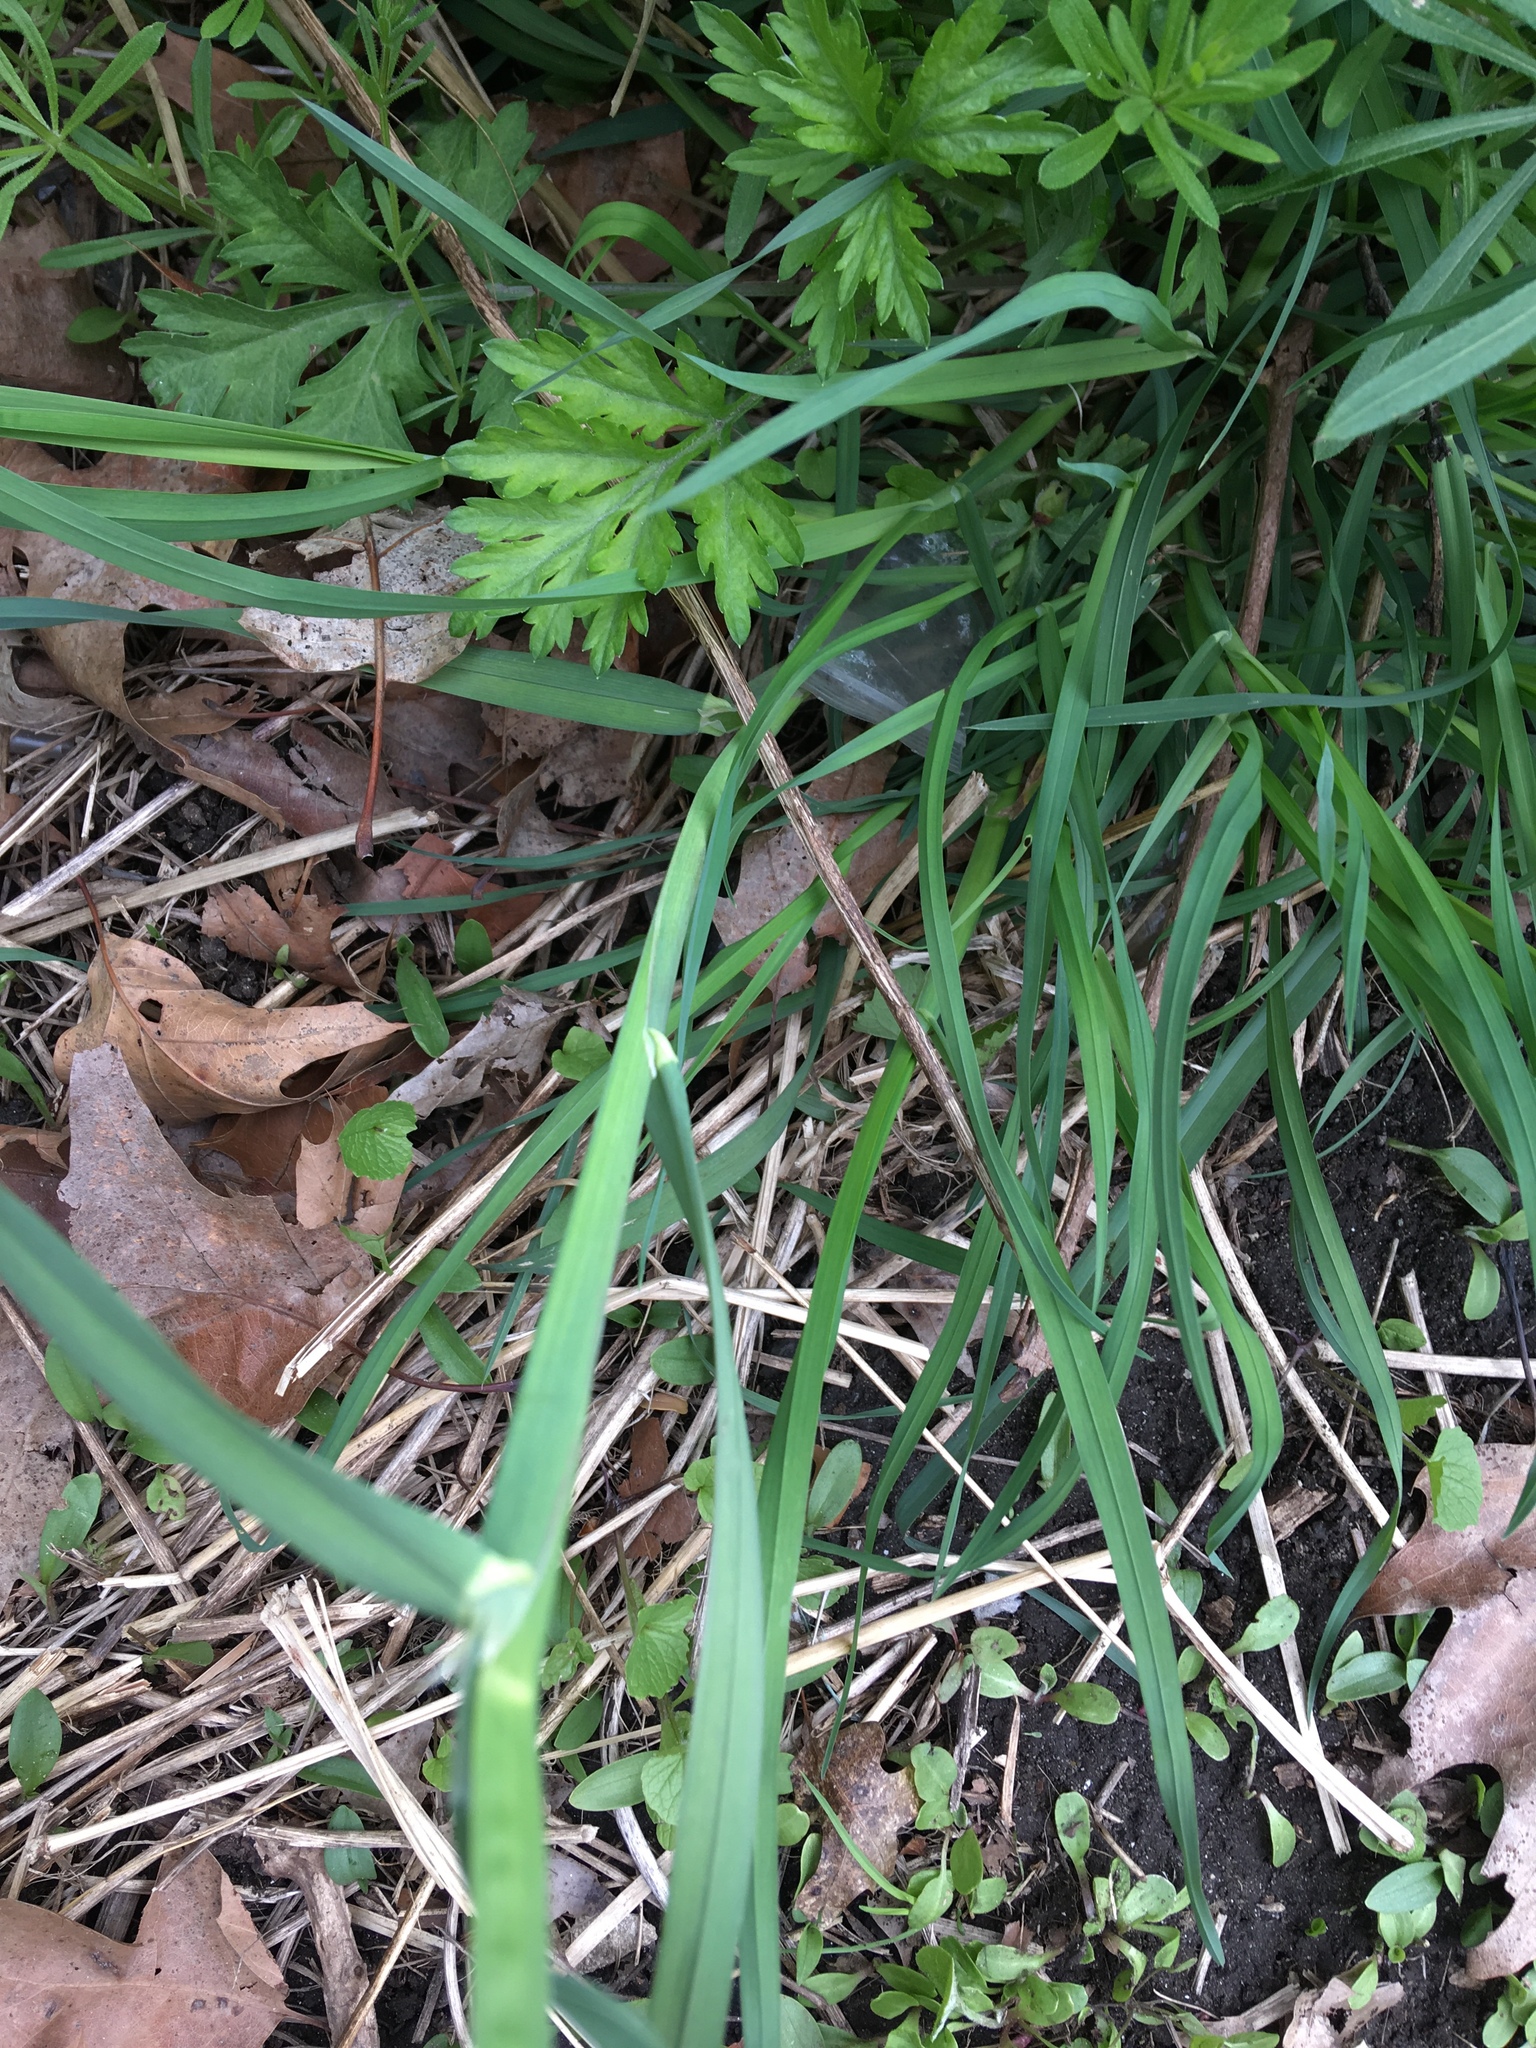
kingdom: Plantae
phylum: Tracheophyta
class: Liliopsida
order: Poales
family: Poaceae
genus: Dactylis
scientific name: Dactylis glomerata
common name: Orchardgrass
